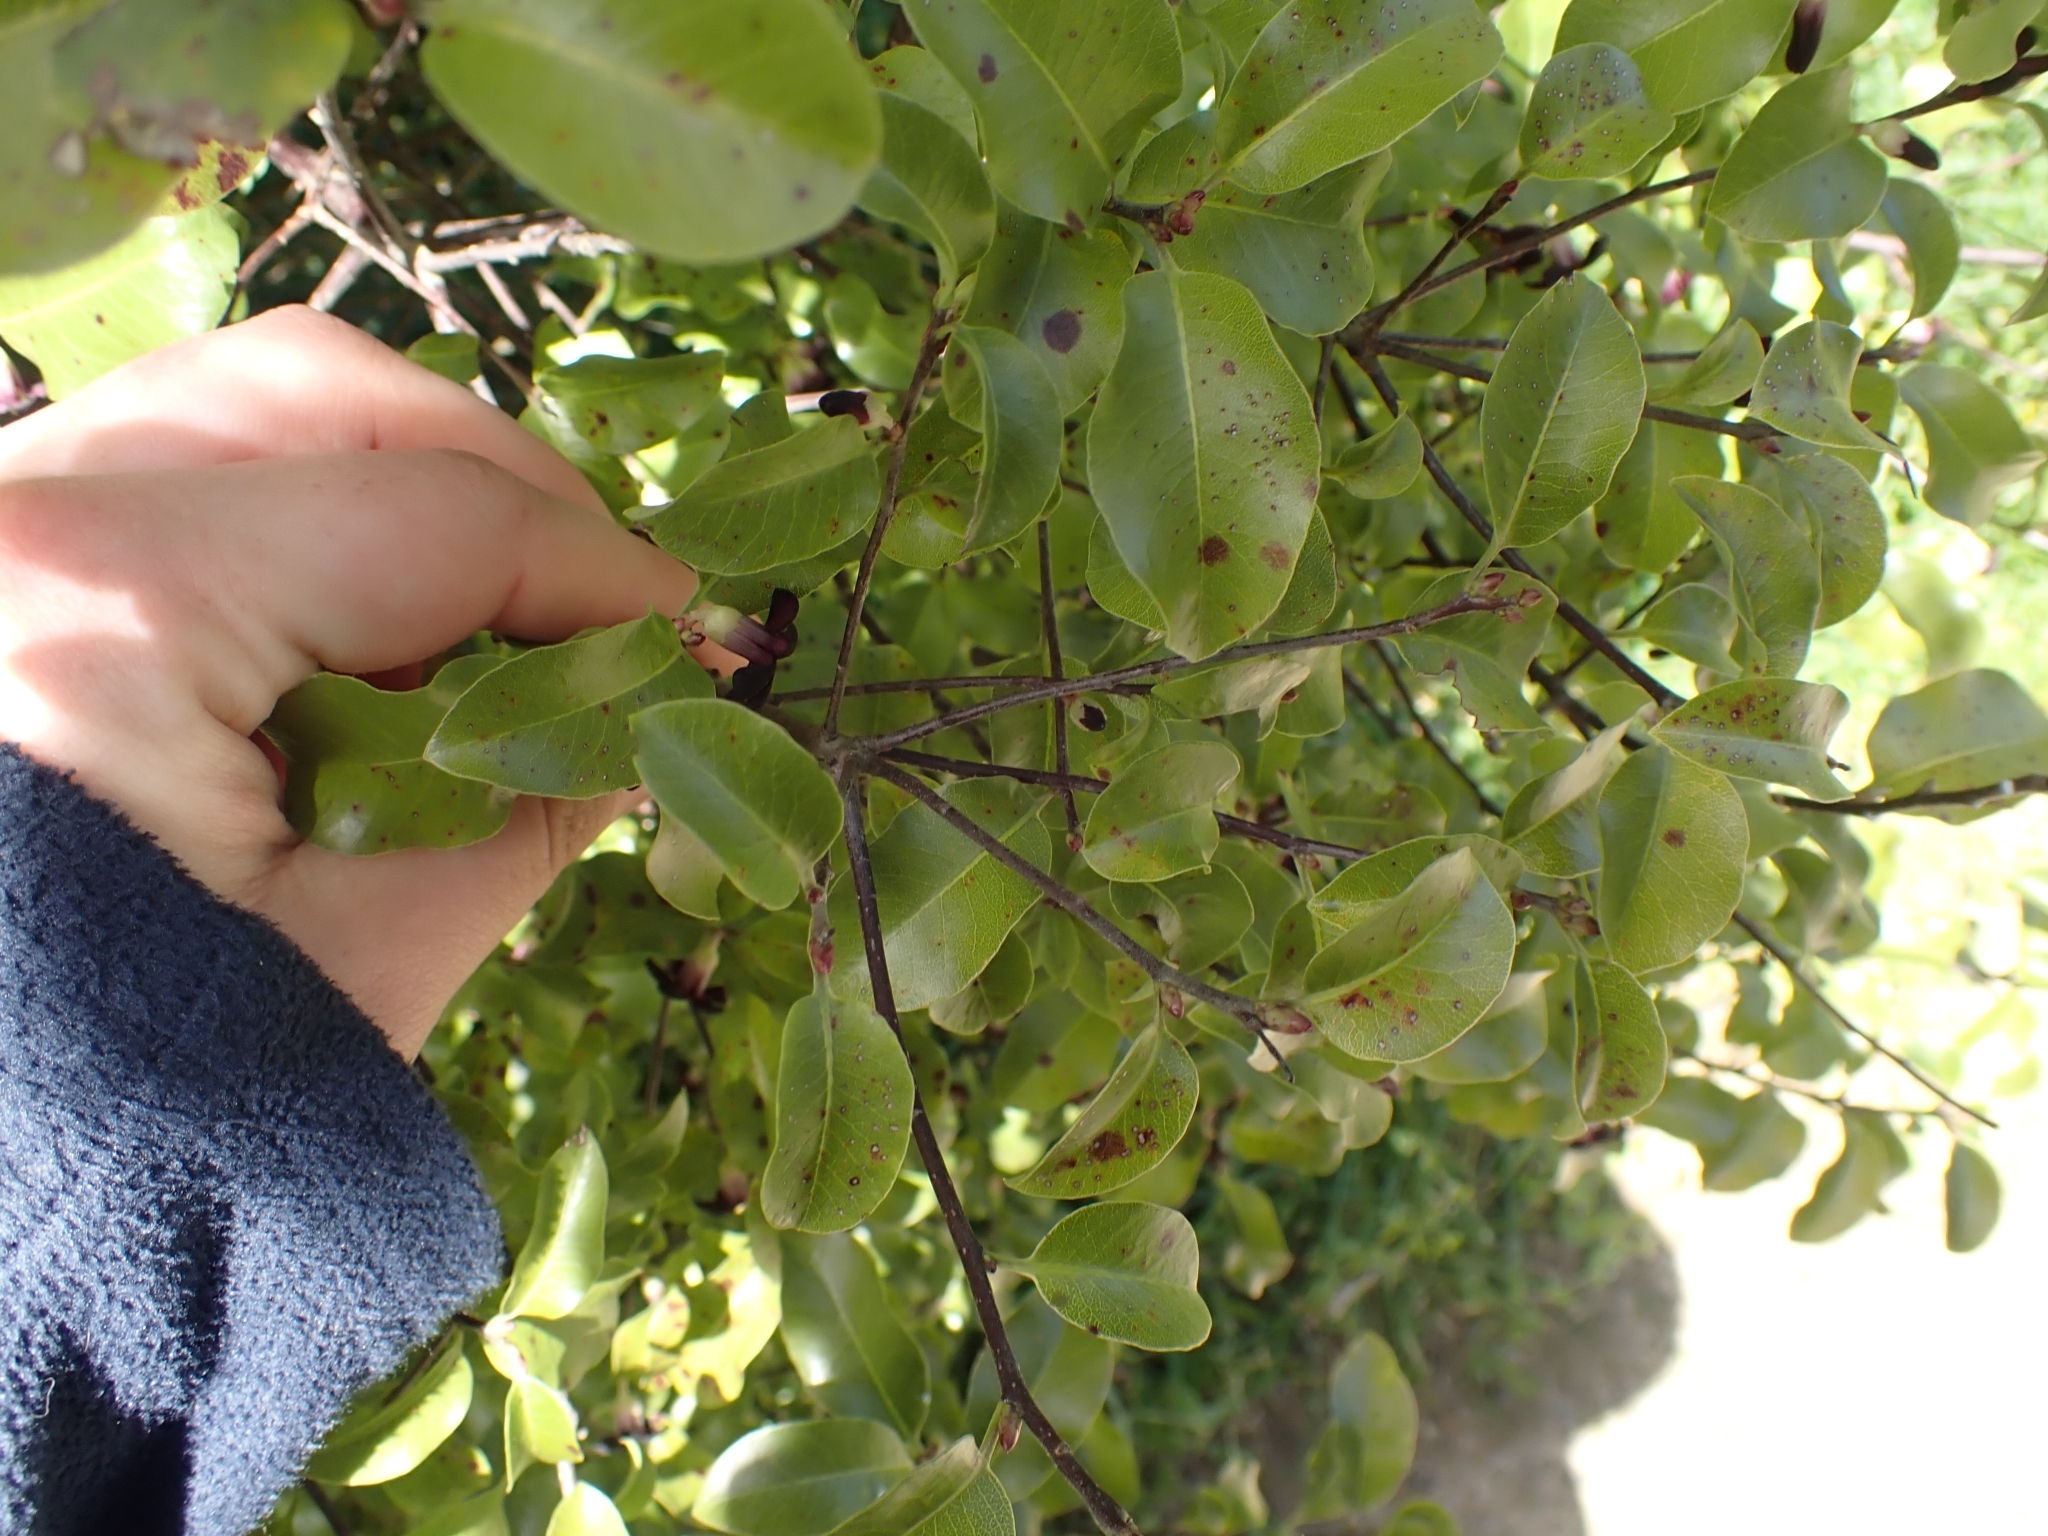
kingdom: Plantae
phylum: Tracheophyta
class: Magnoliopsida
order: Apiales
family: Pittosporaceae
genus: Pittosporum
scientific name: Pittosporum tenuifolium
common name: Kohuhu
